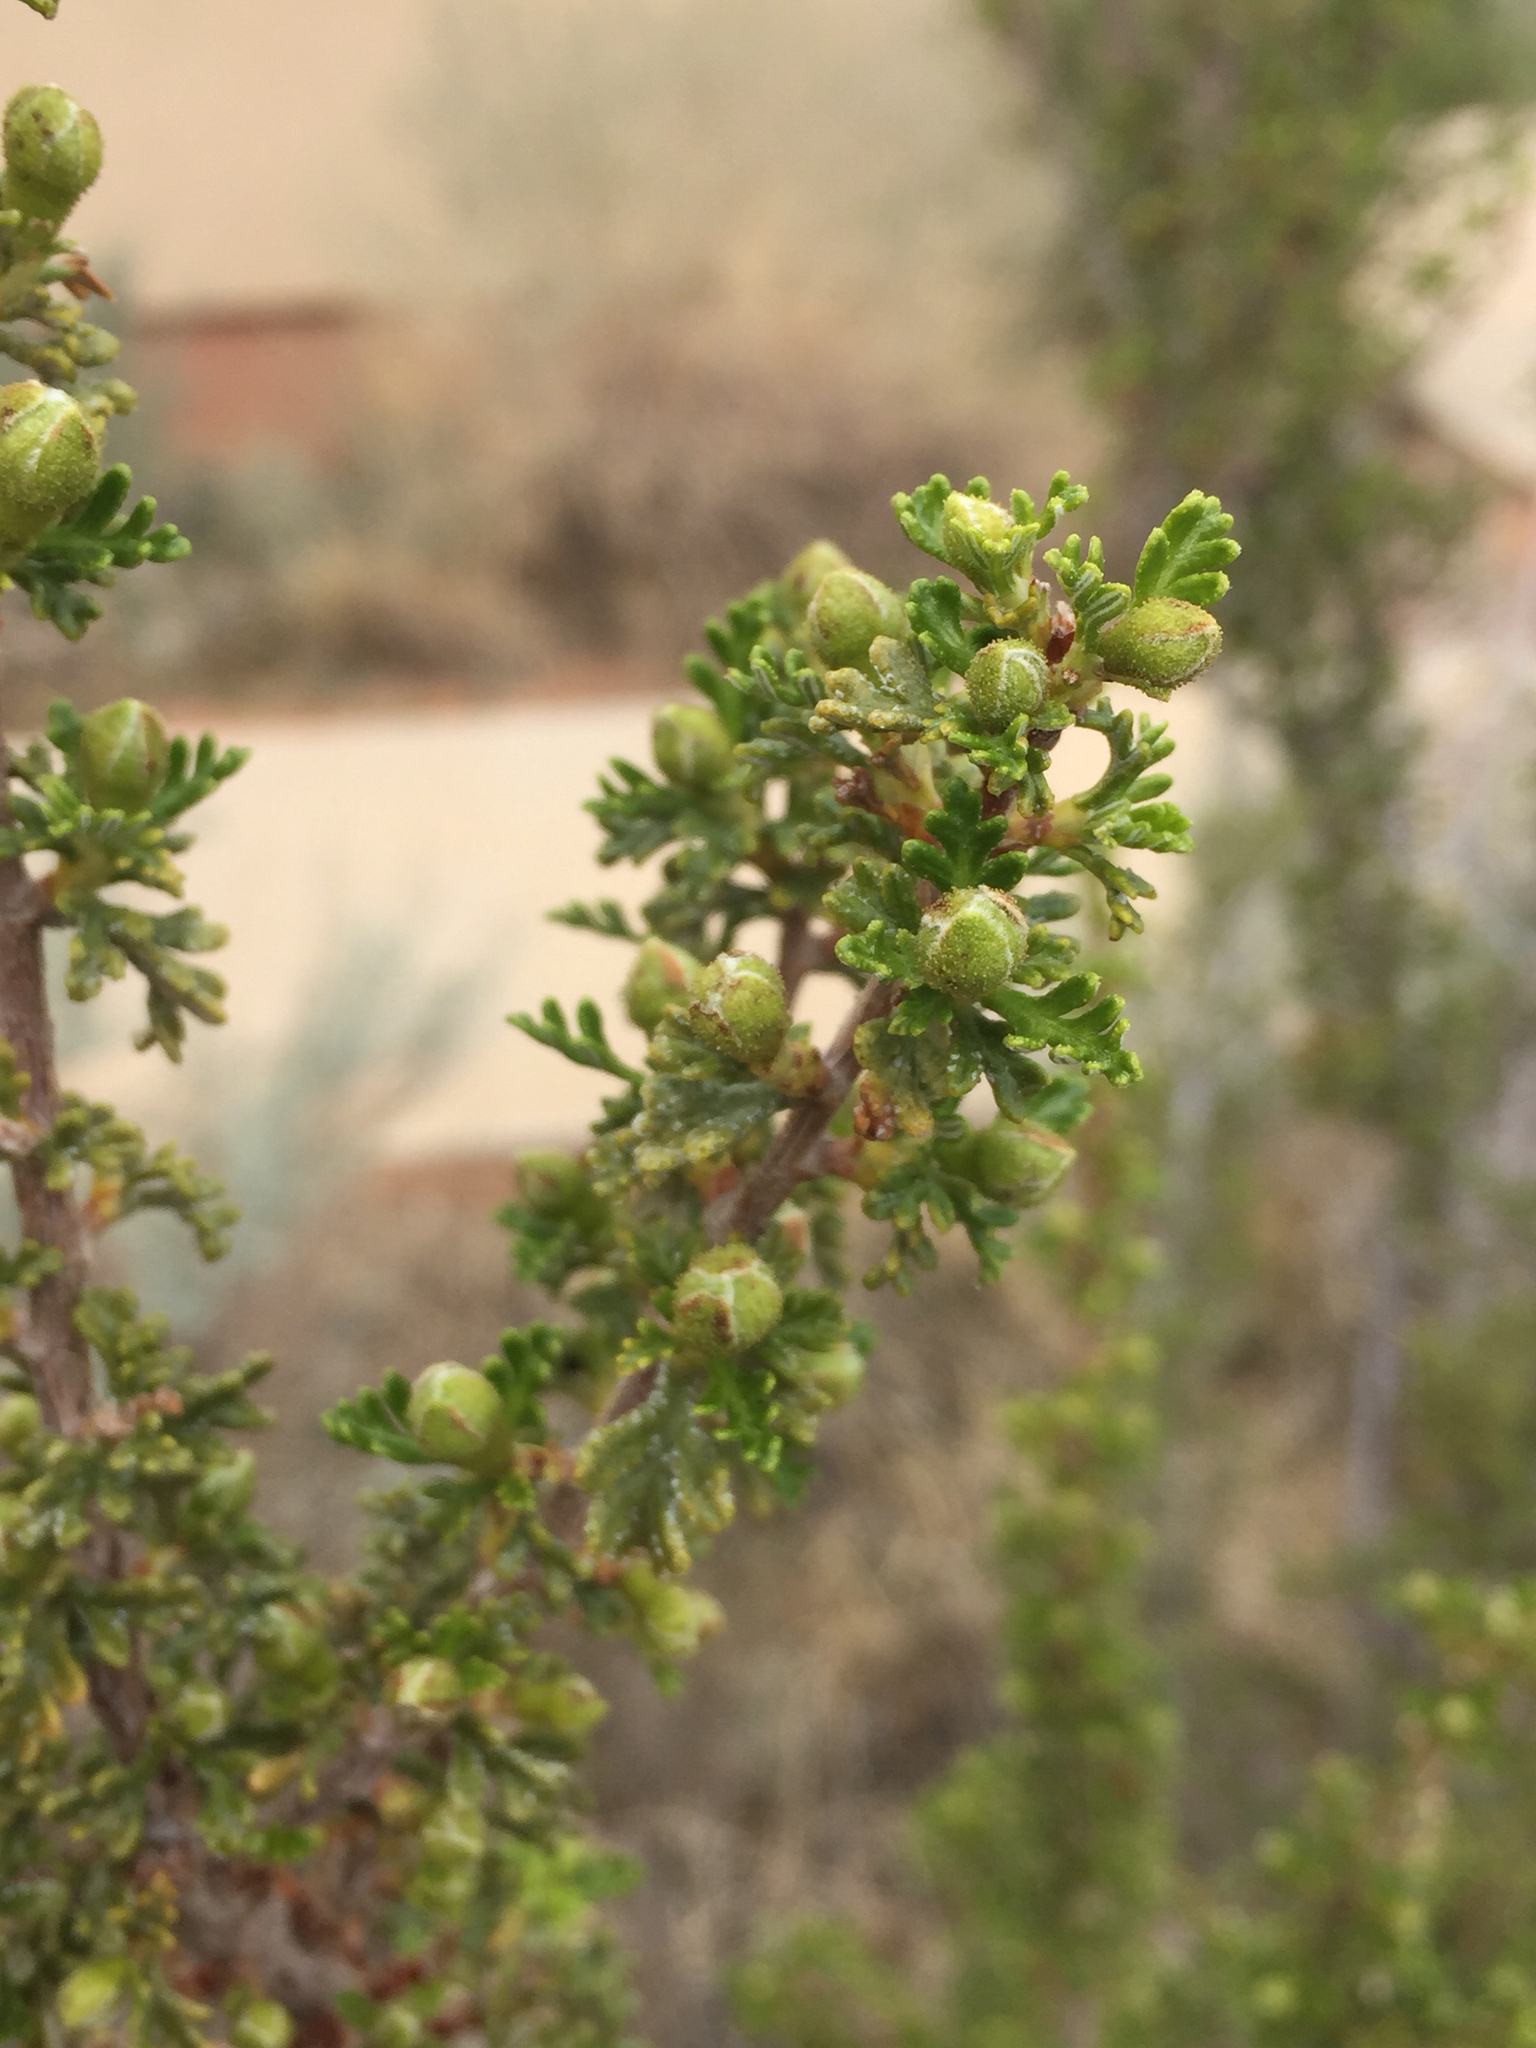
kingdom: Plantae
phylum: Tracheophyta
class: Magnoliopsida
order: Rosales
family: Rosaceae
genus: Purshia
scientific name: Purshia stansburiana
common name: Stansbury's cliffrose
